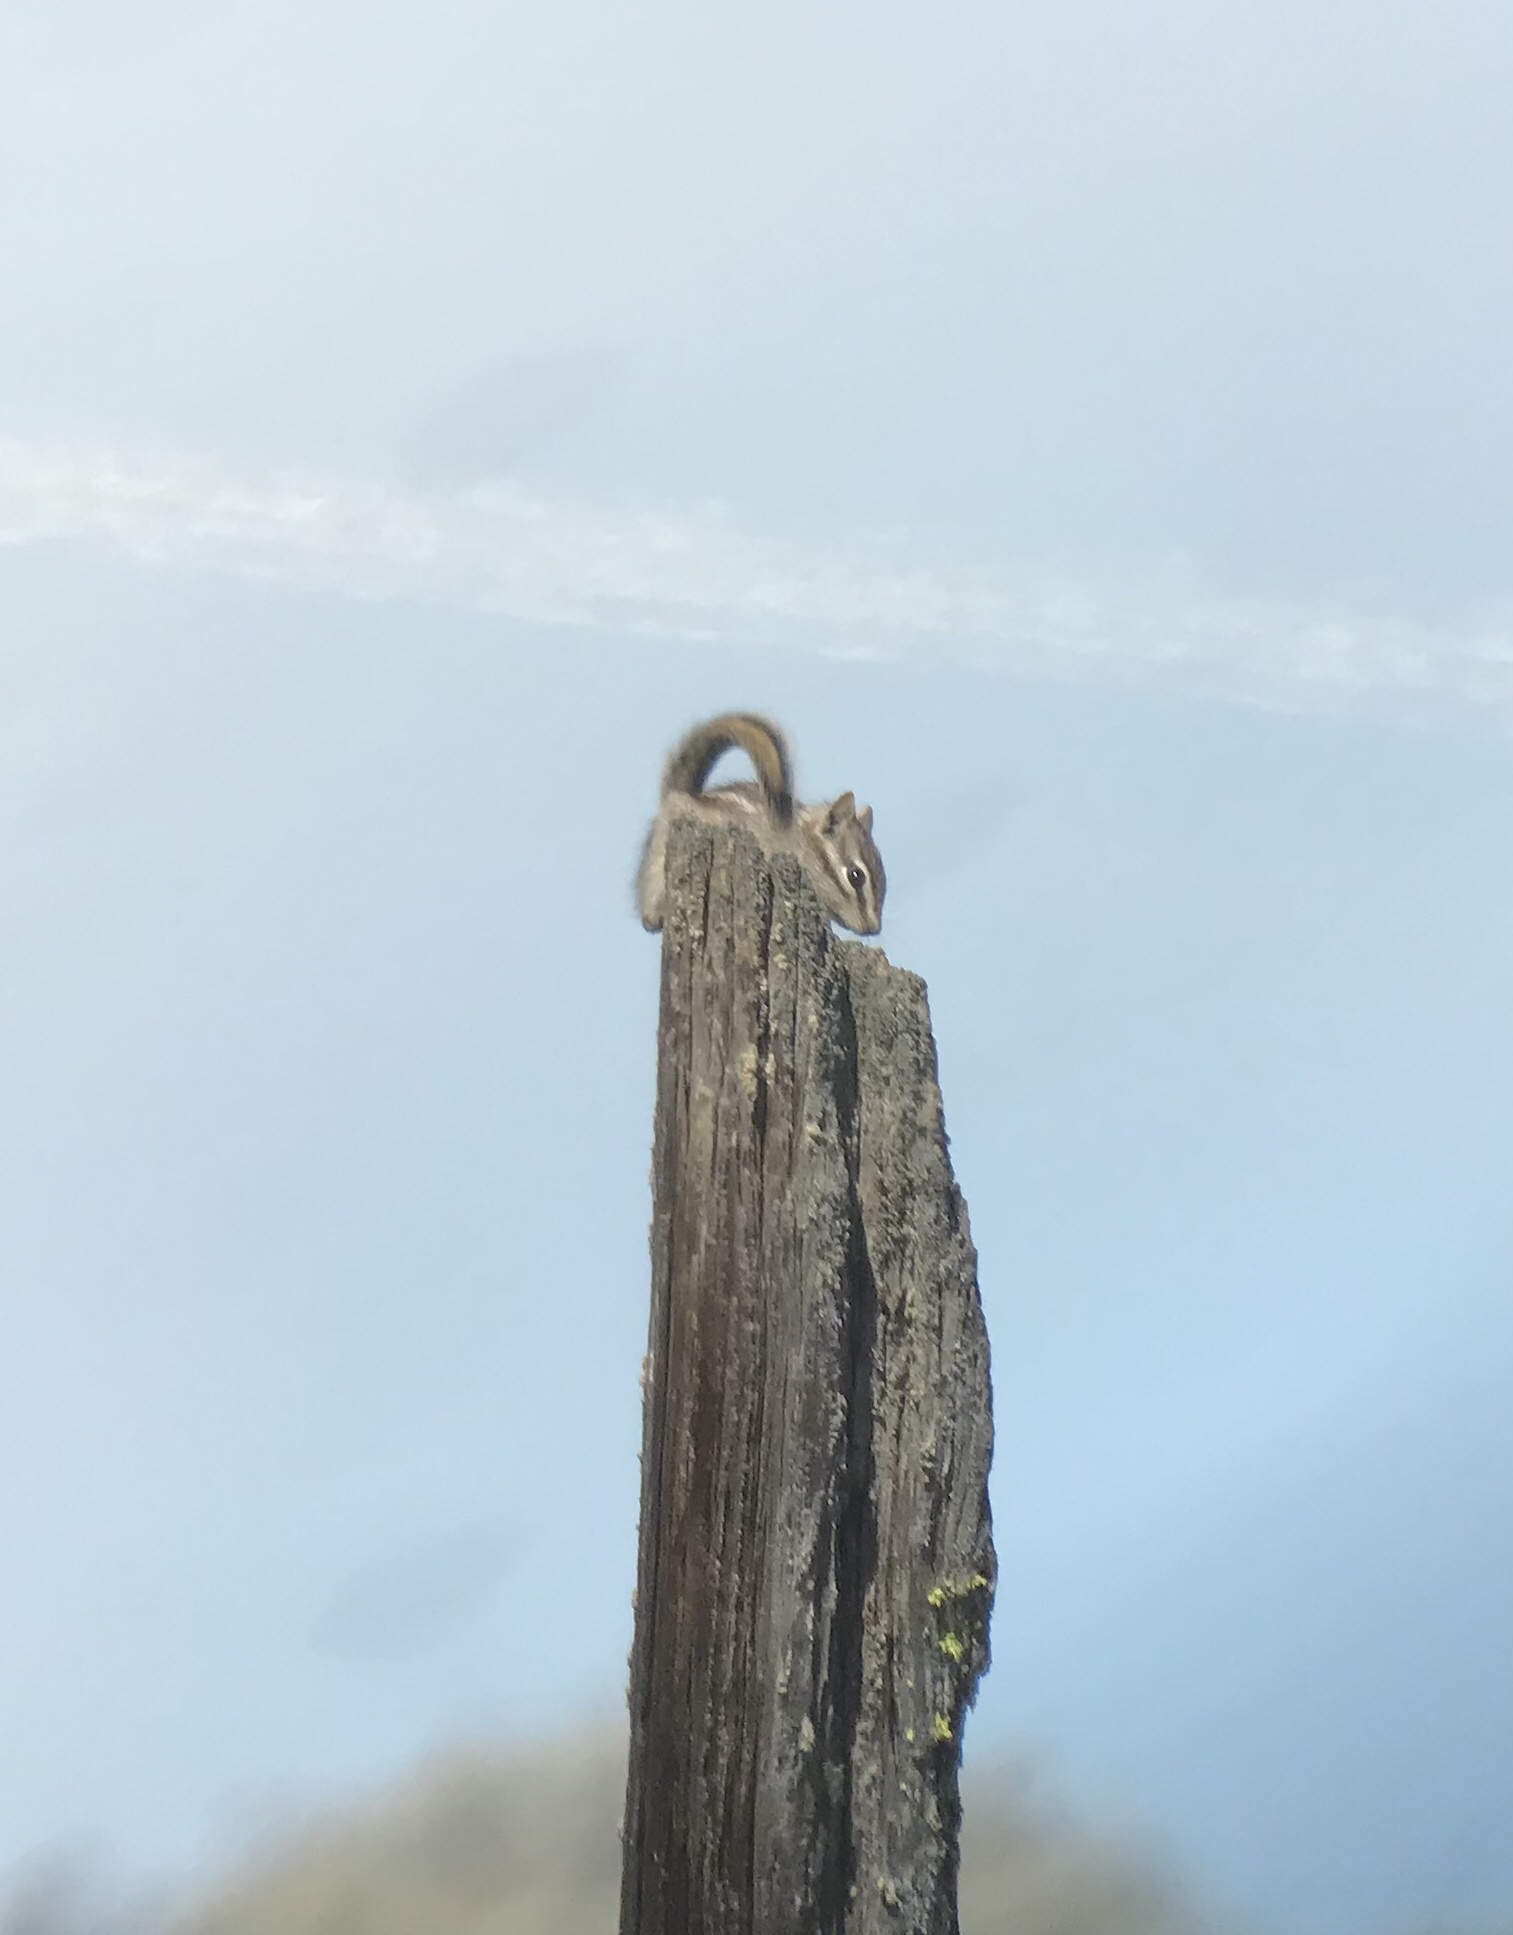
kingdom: Animalia
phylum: Chordata
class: Mammalia
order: Rodentia
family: Sciuridae
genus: Tamias
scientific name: Tamias minimus
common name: Least chipmunk
